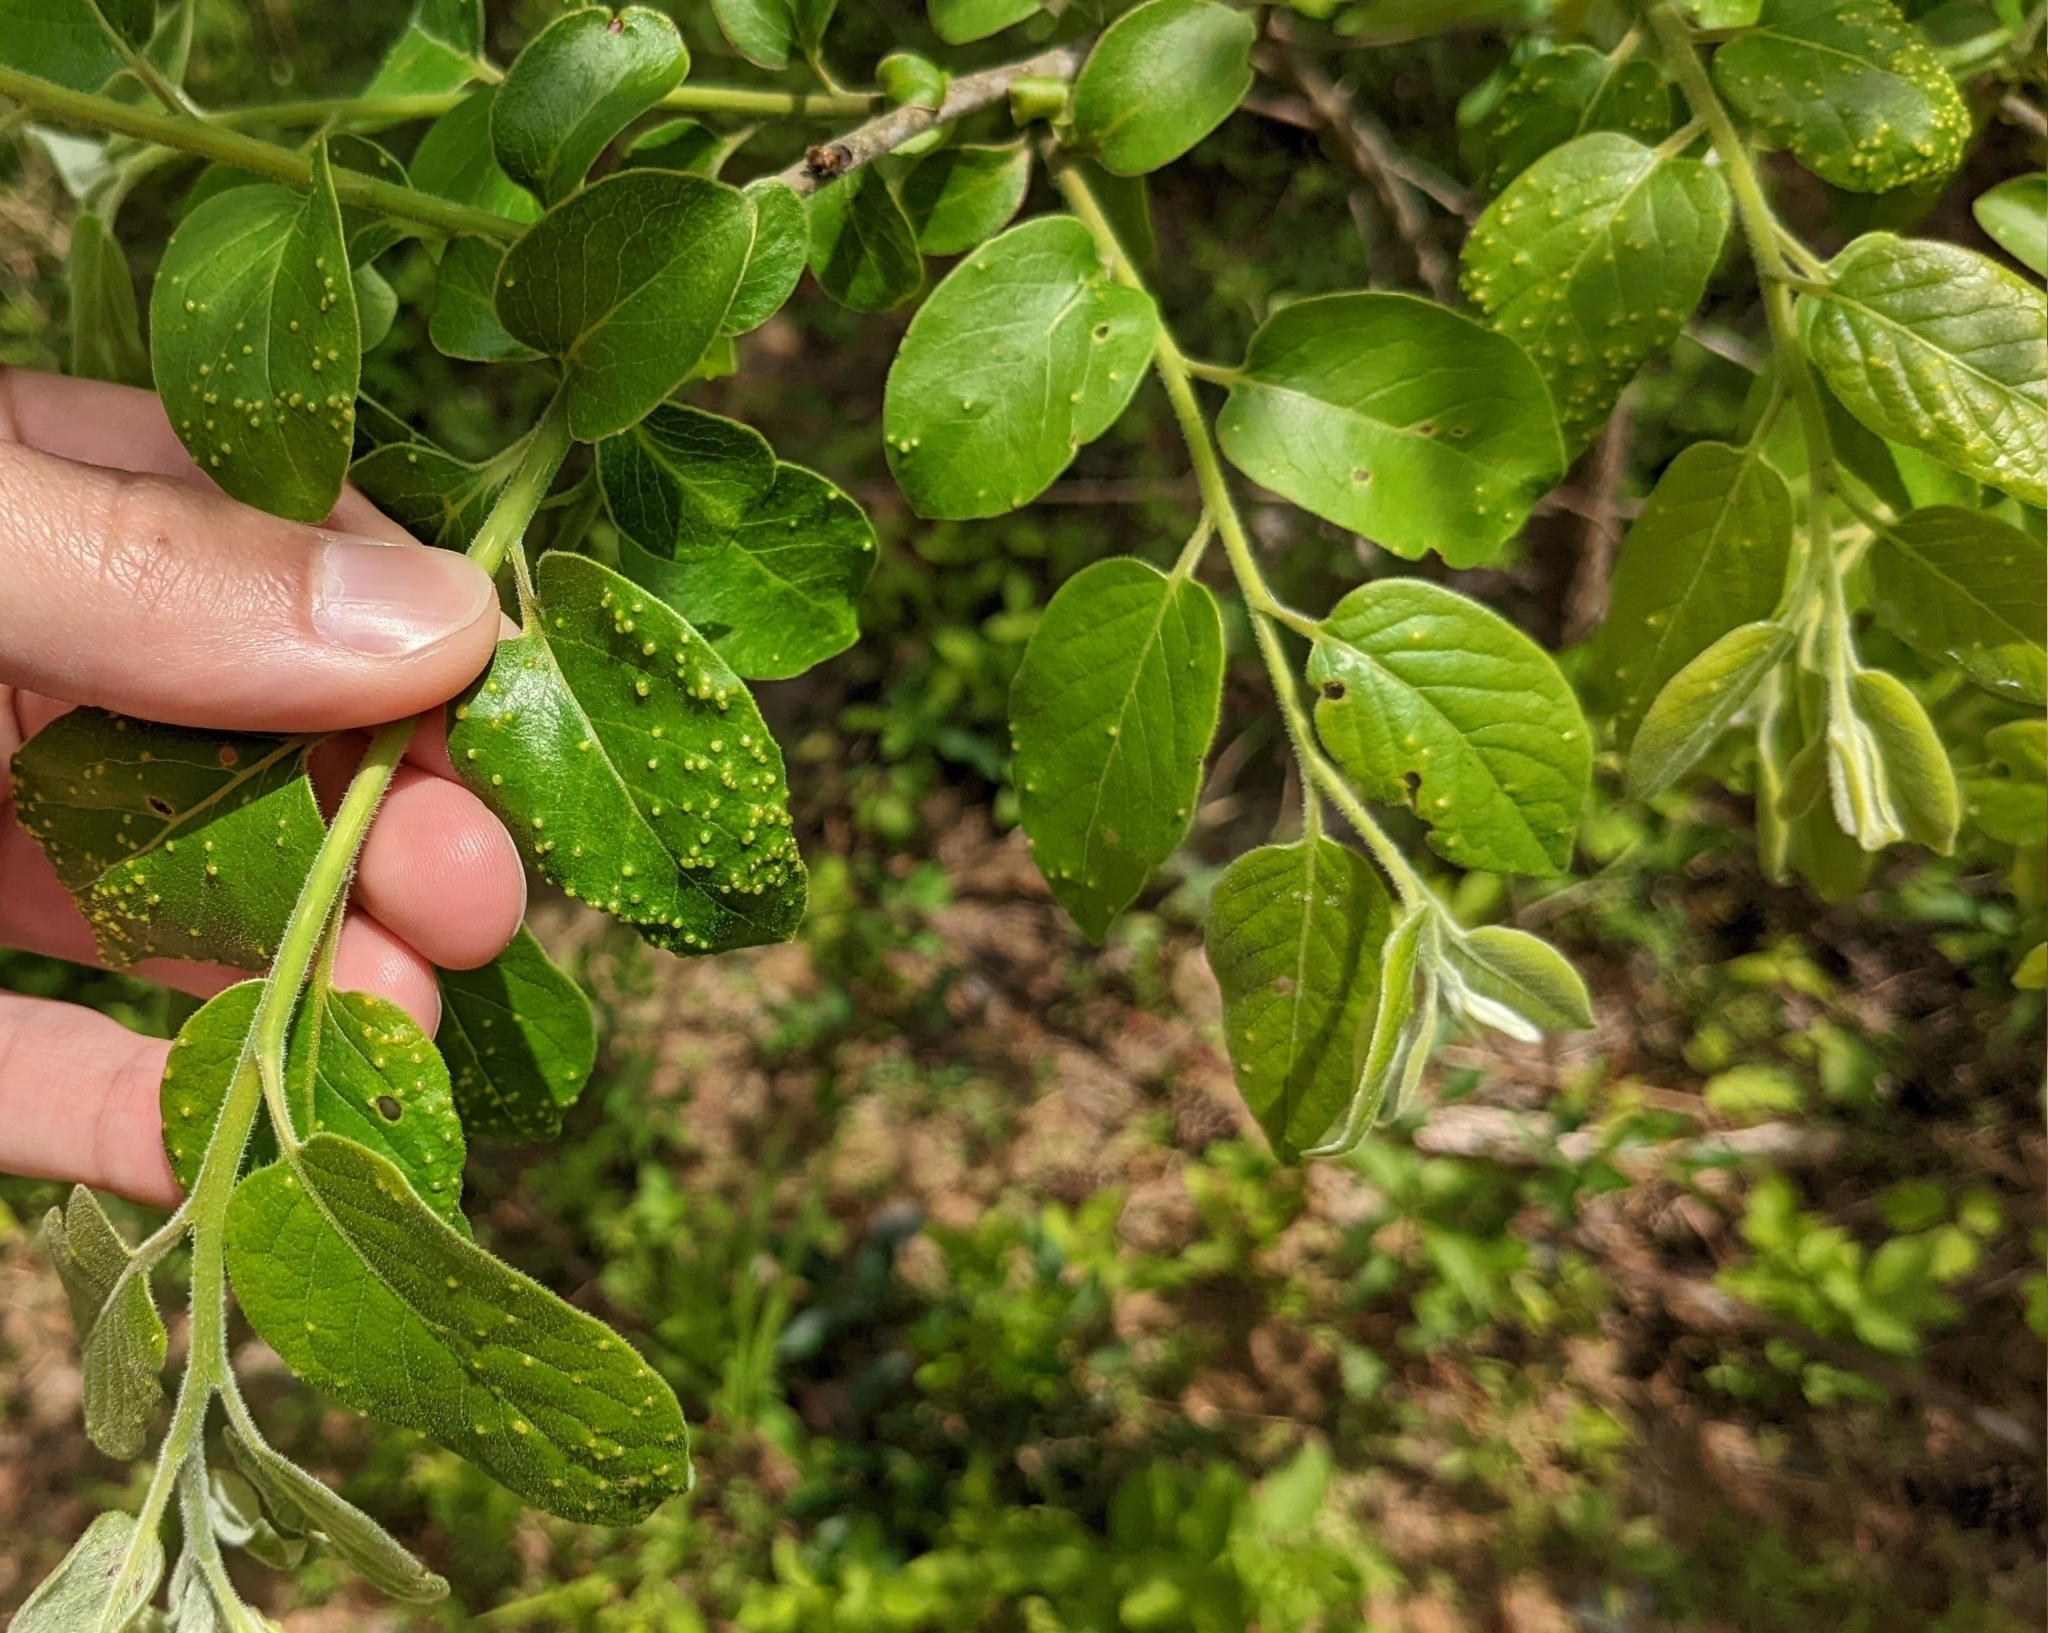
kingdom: Plantae
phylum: Tracheophyta
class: Magnoliopsida
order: Ericales
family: Ebenaceae
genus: Diospyros
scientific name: Diospyros virginiana
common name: Persimmon
